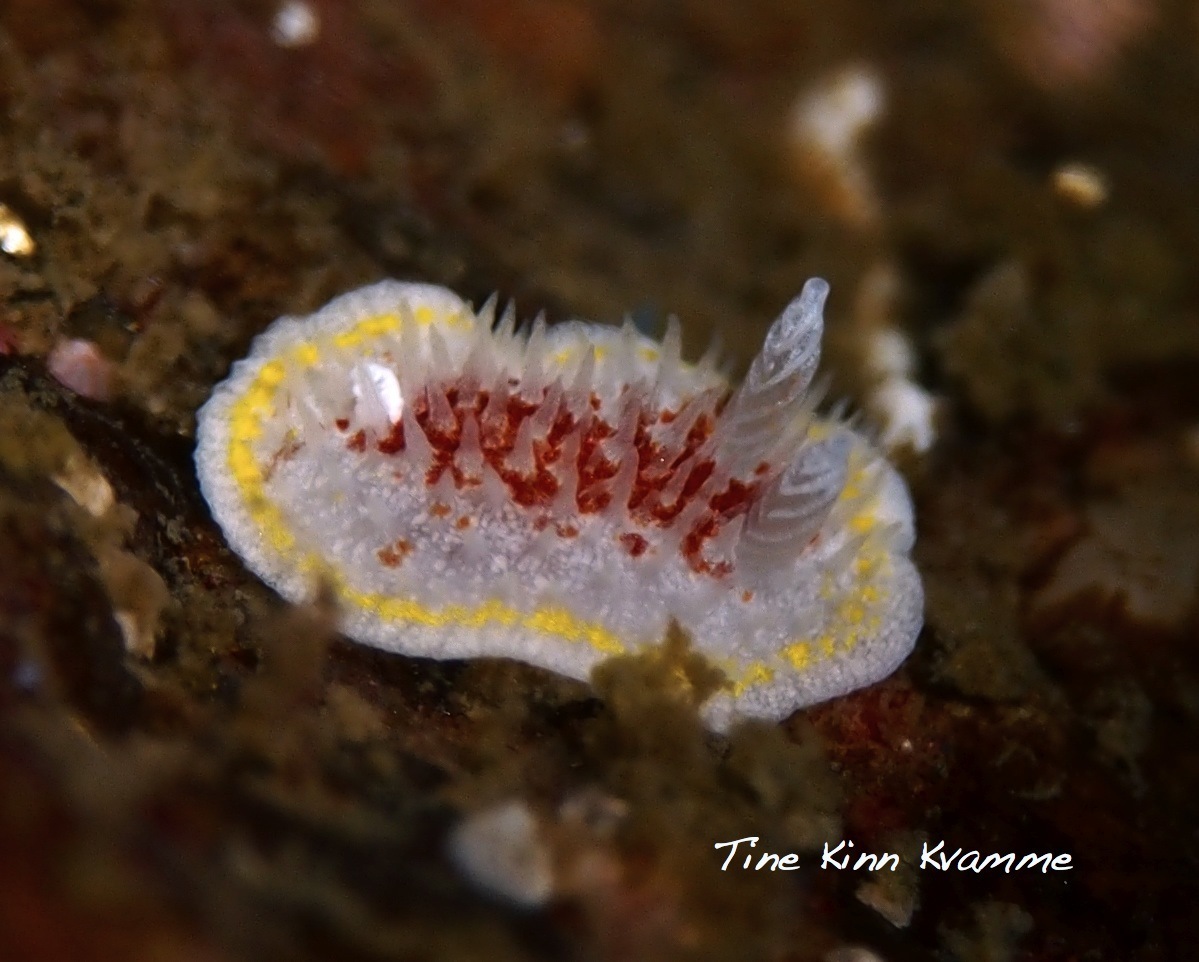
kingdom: Animalia
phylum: Mollusca
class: Gastropoda
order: Nudibranchia
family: Calycidorididae
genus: Diaphorodoris
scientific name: Diaphorodoris luteocincta
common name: Fried egg nudibranch
